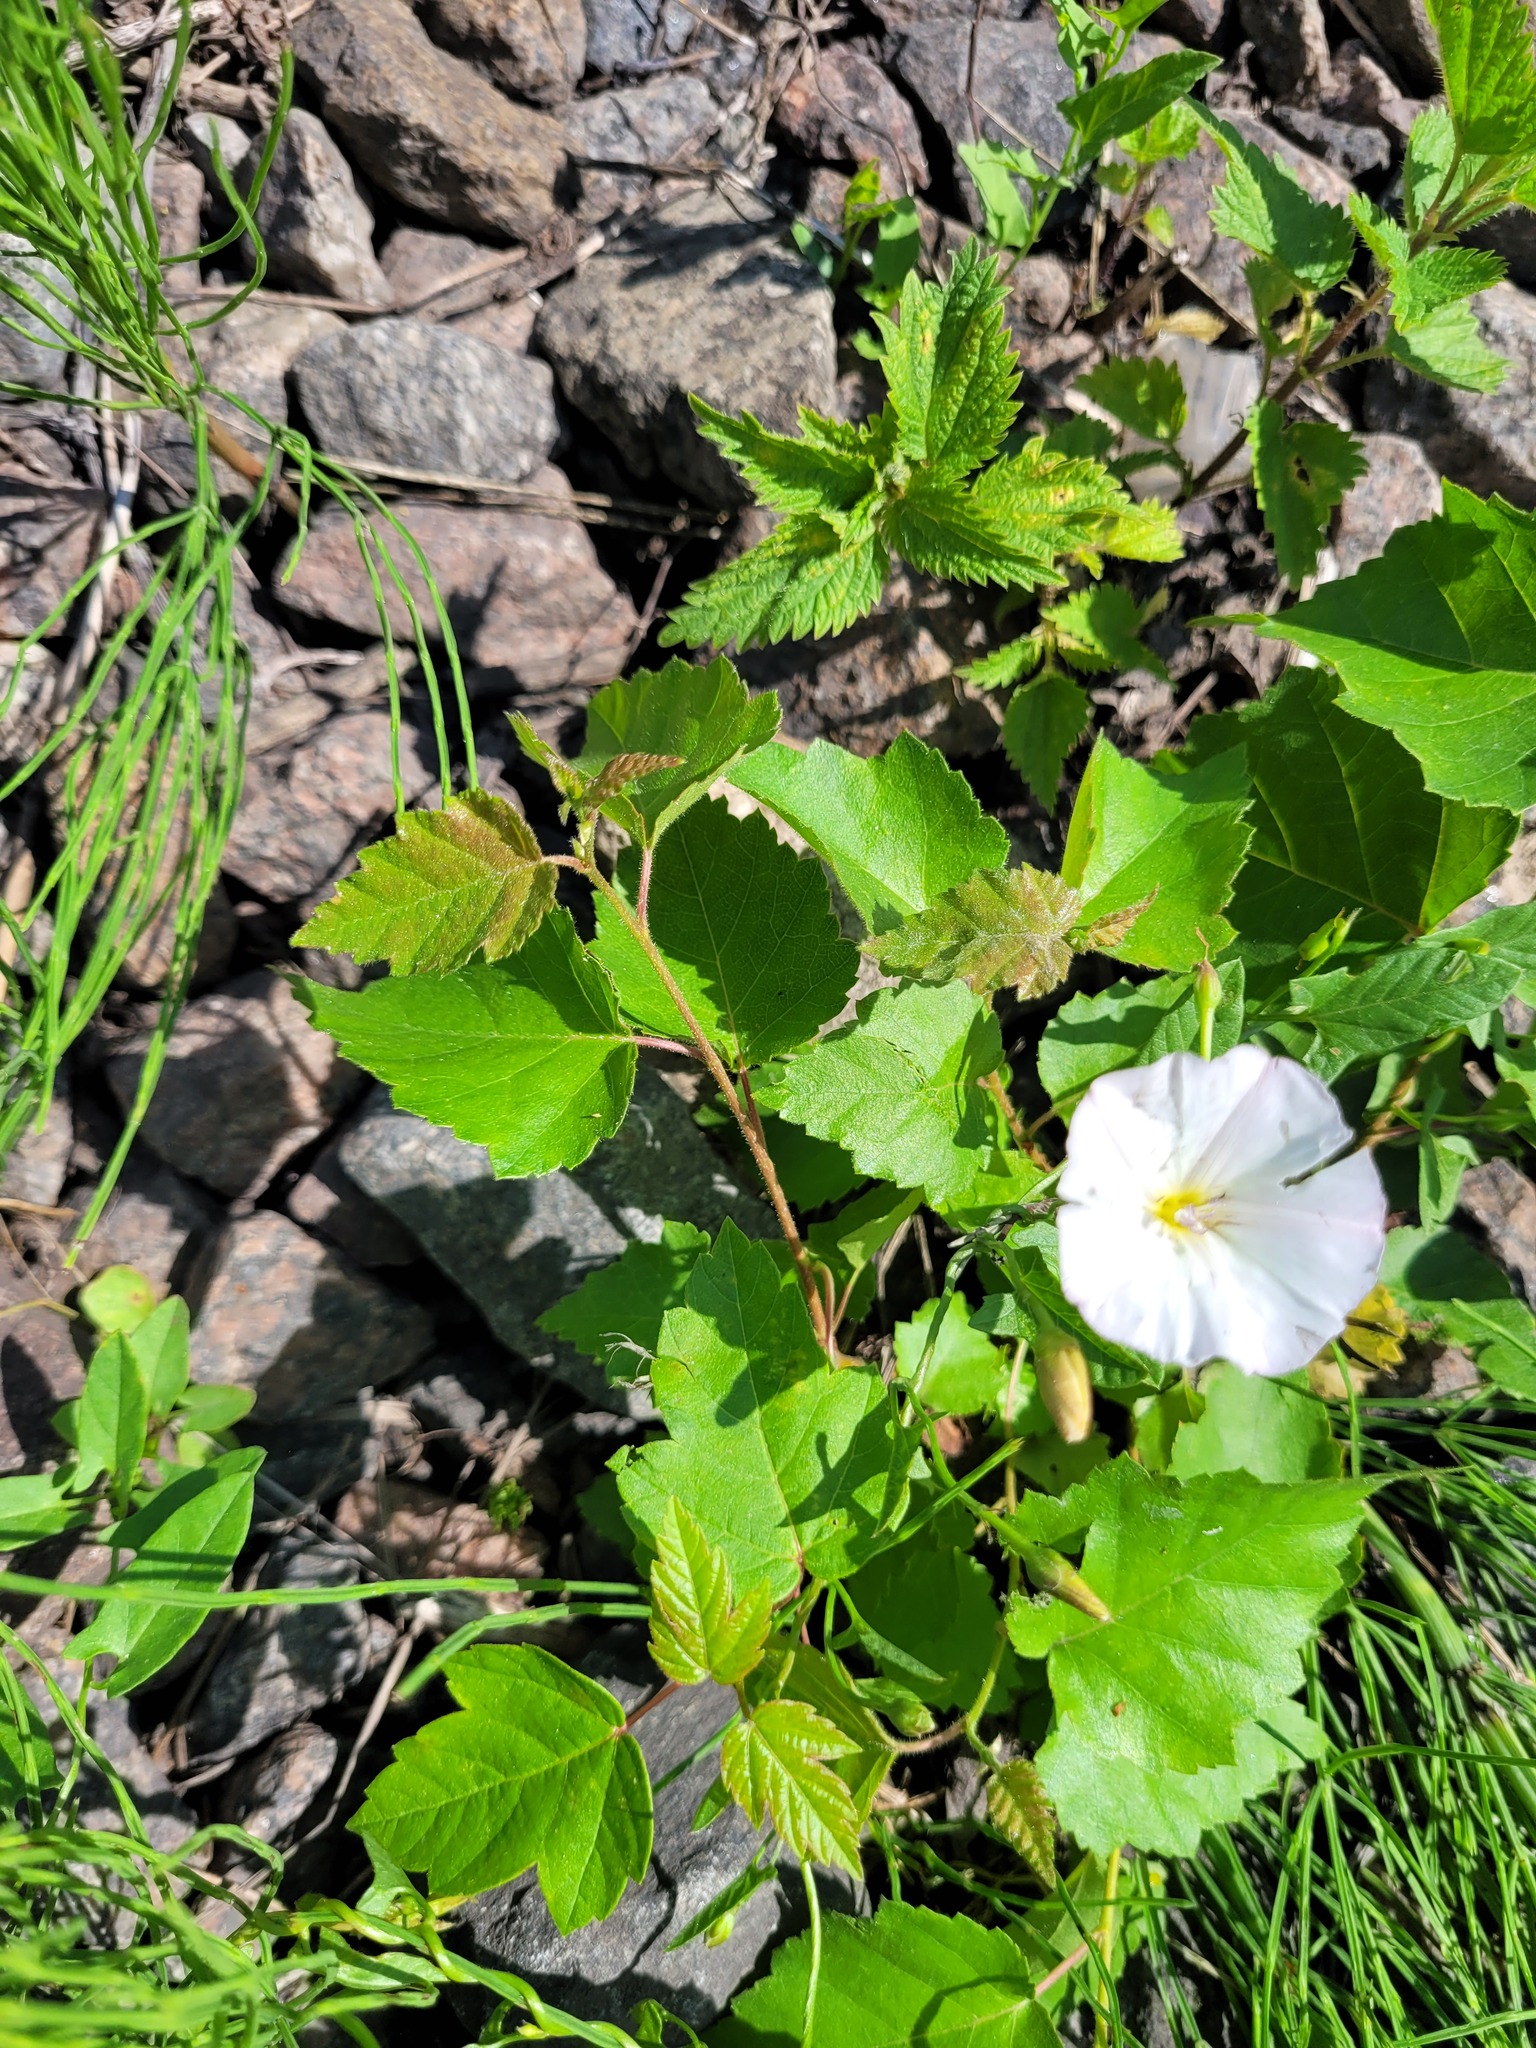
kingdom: Plantae
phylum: Tracheophyta
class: Magnoliopsida
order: Fagales
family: Betulaceae
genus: Betula
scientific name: Betula pubescens
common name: Downy birch
